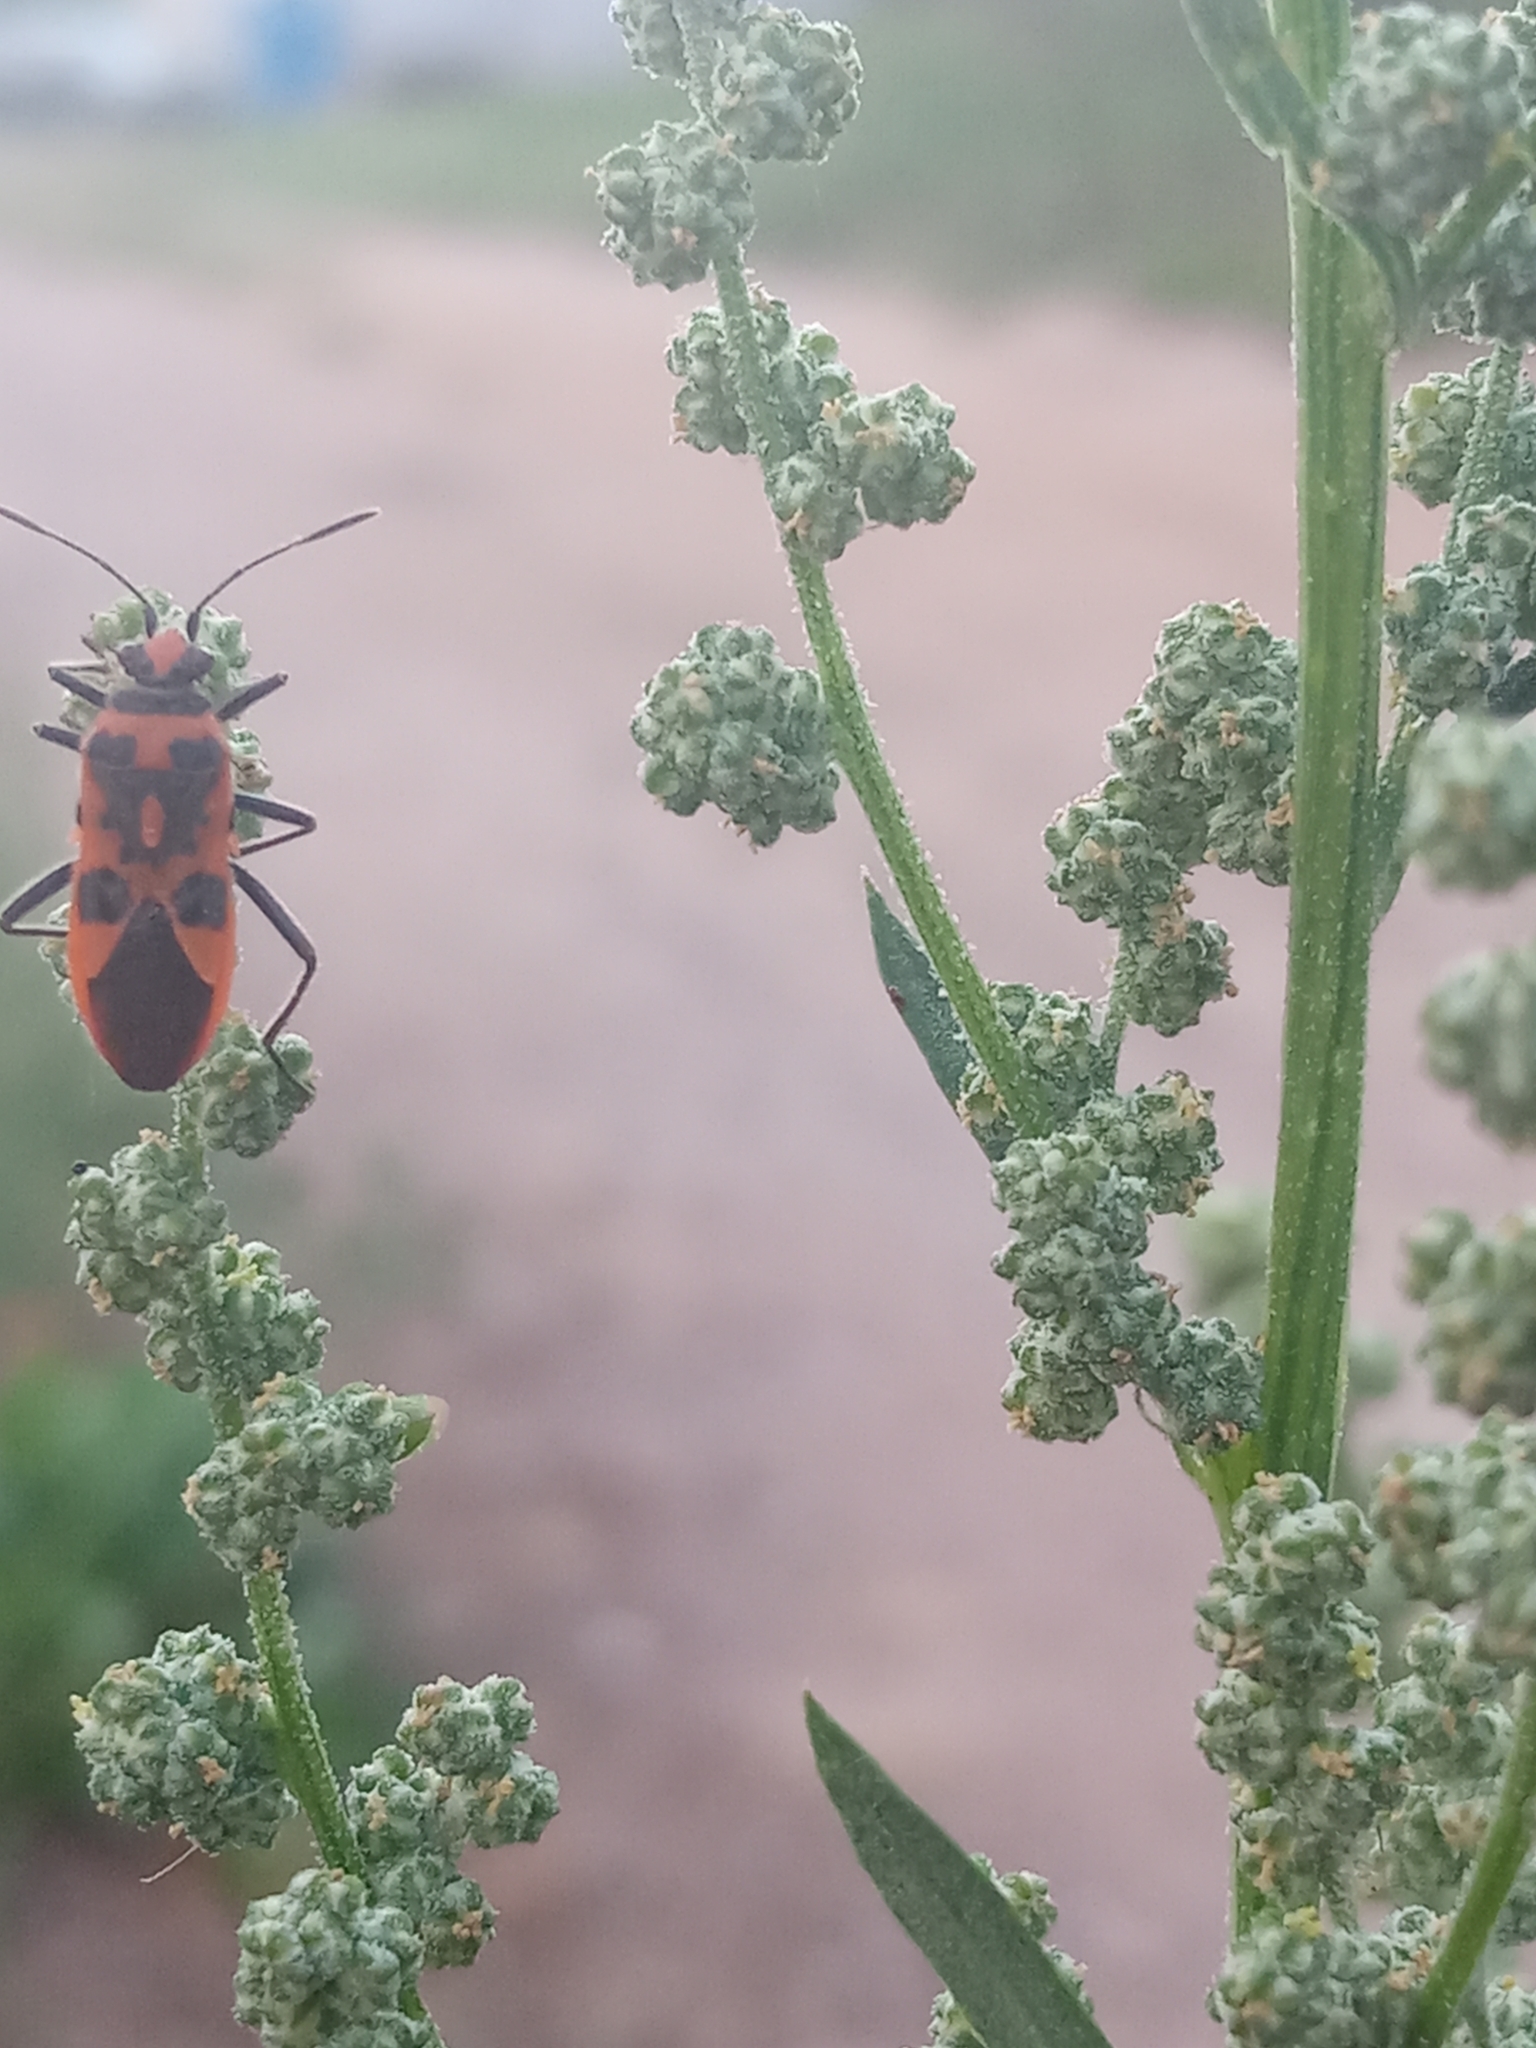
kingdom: Animalia
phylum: Arthropoda
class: Insecta
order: Hemiptera
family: Rhopalidae
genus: Corizus
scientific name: Corizus hyoscyami
